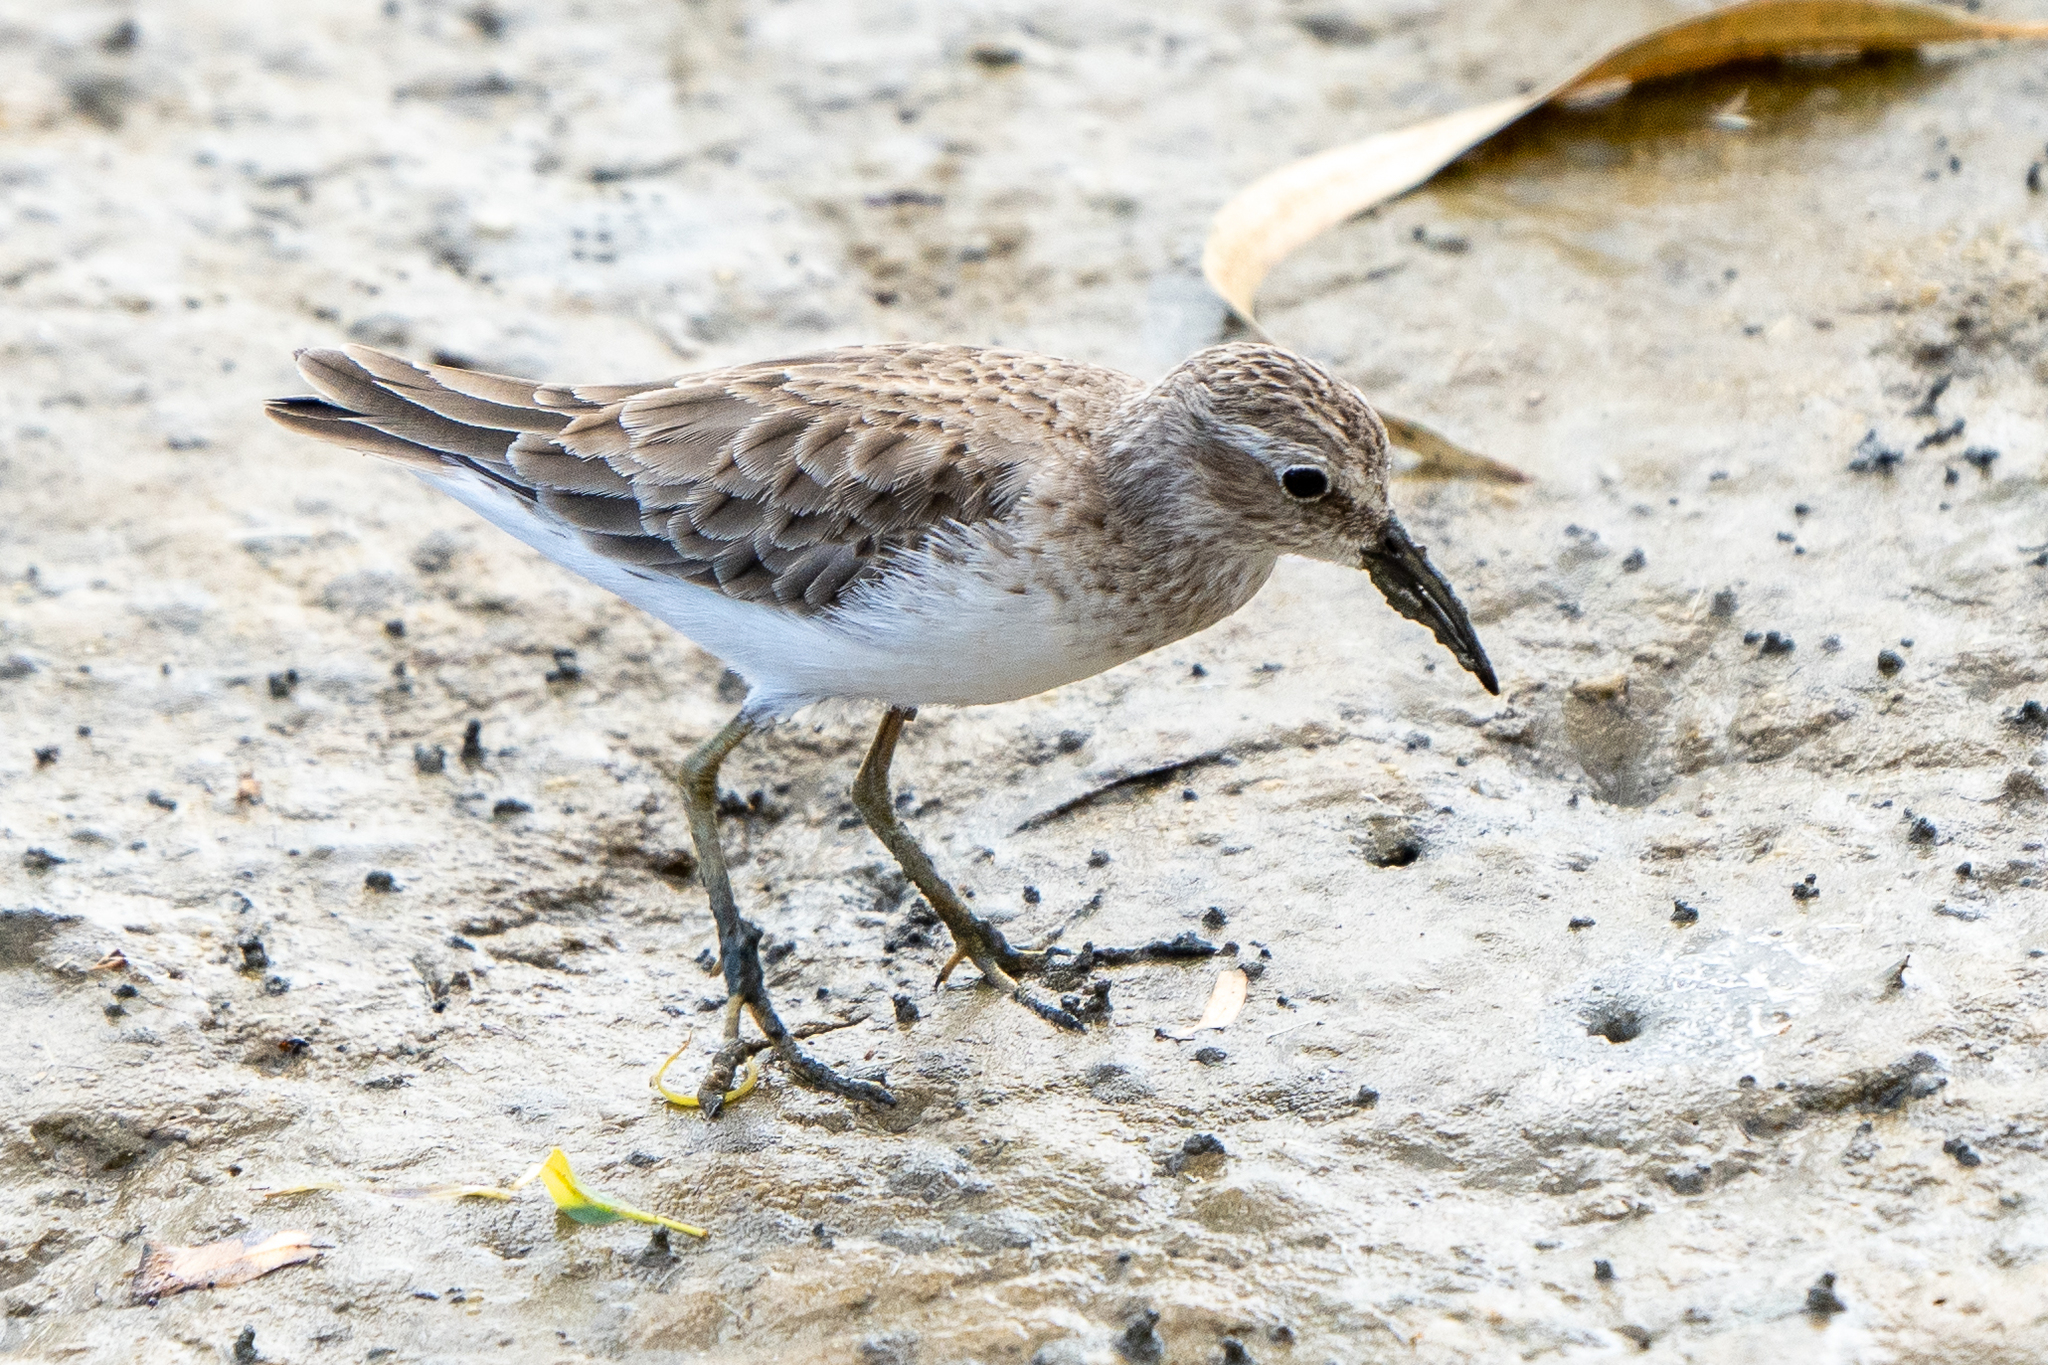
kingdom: Animalia
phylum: Chordata
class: Aves
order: Charadriiformes
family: Scolopacidae
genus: Calidris
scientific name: Calidris minutilla
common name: Least sandpiper
